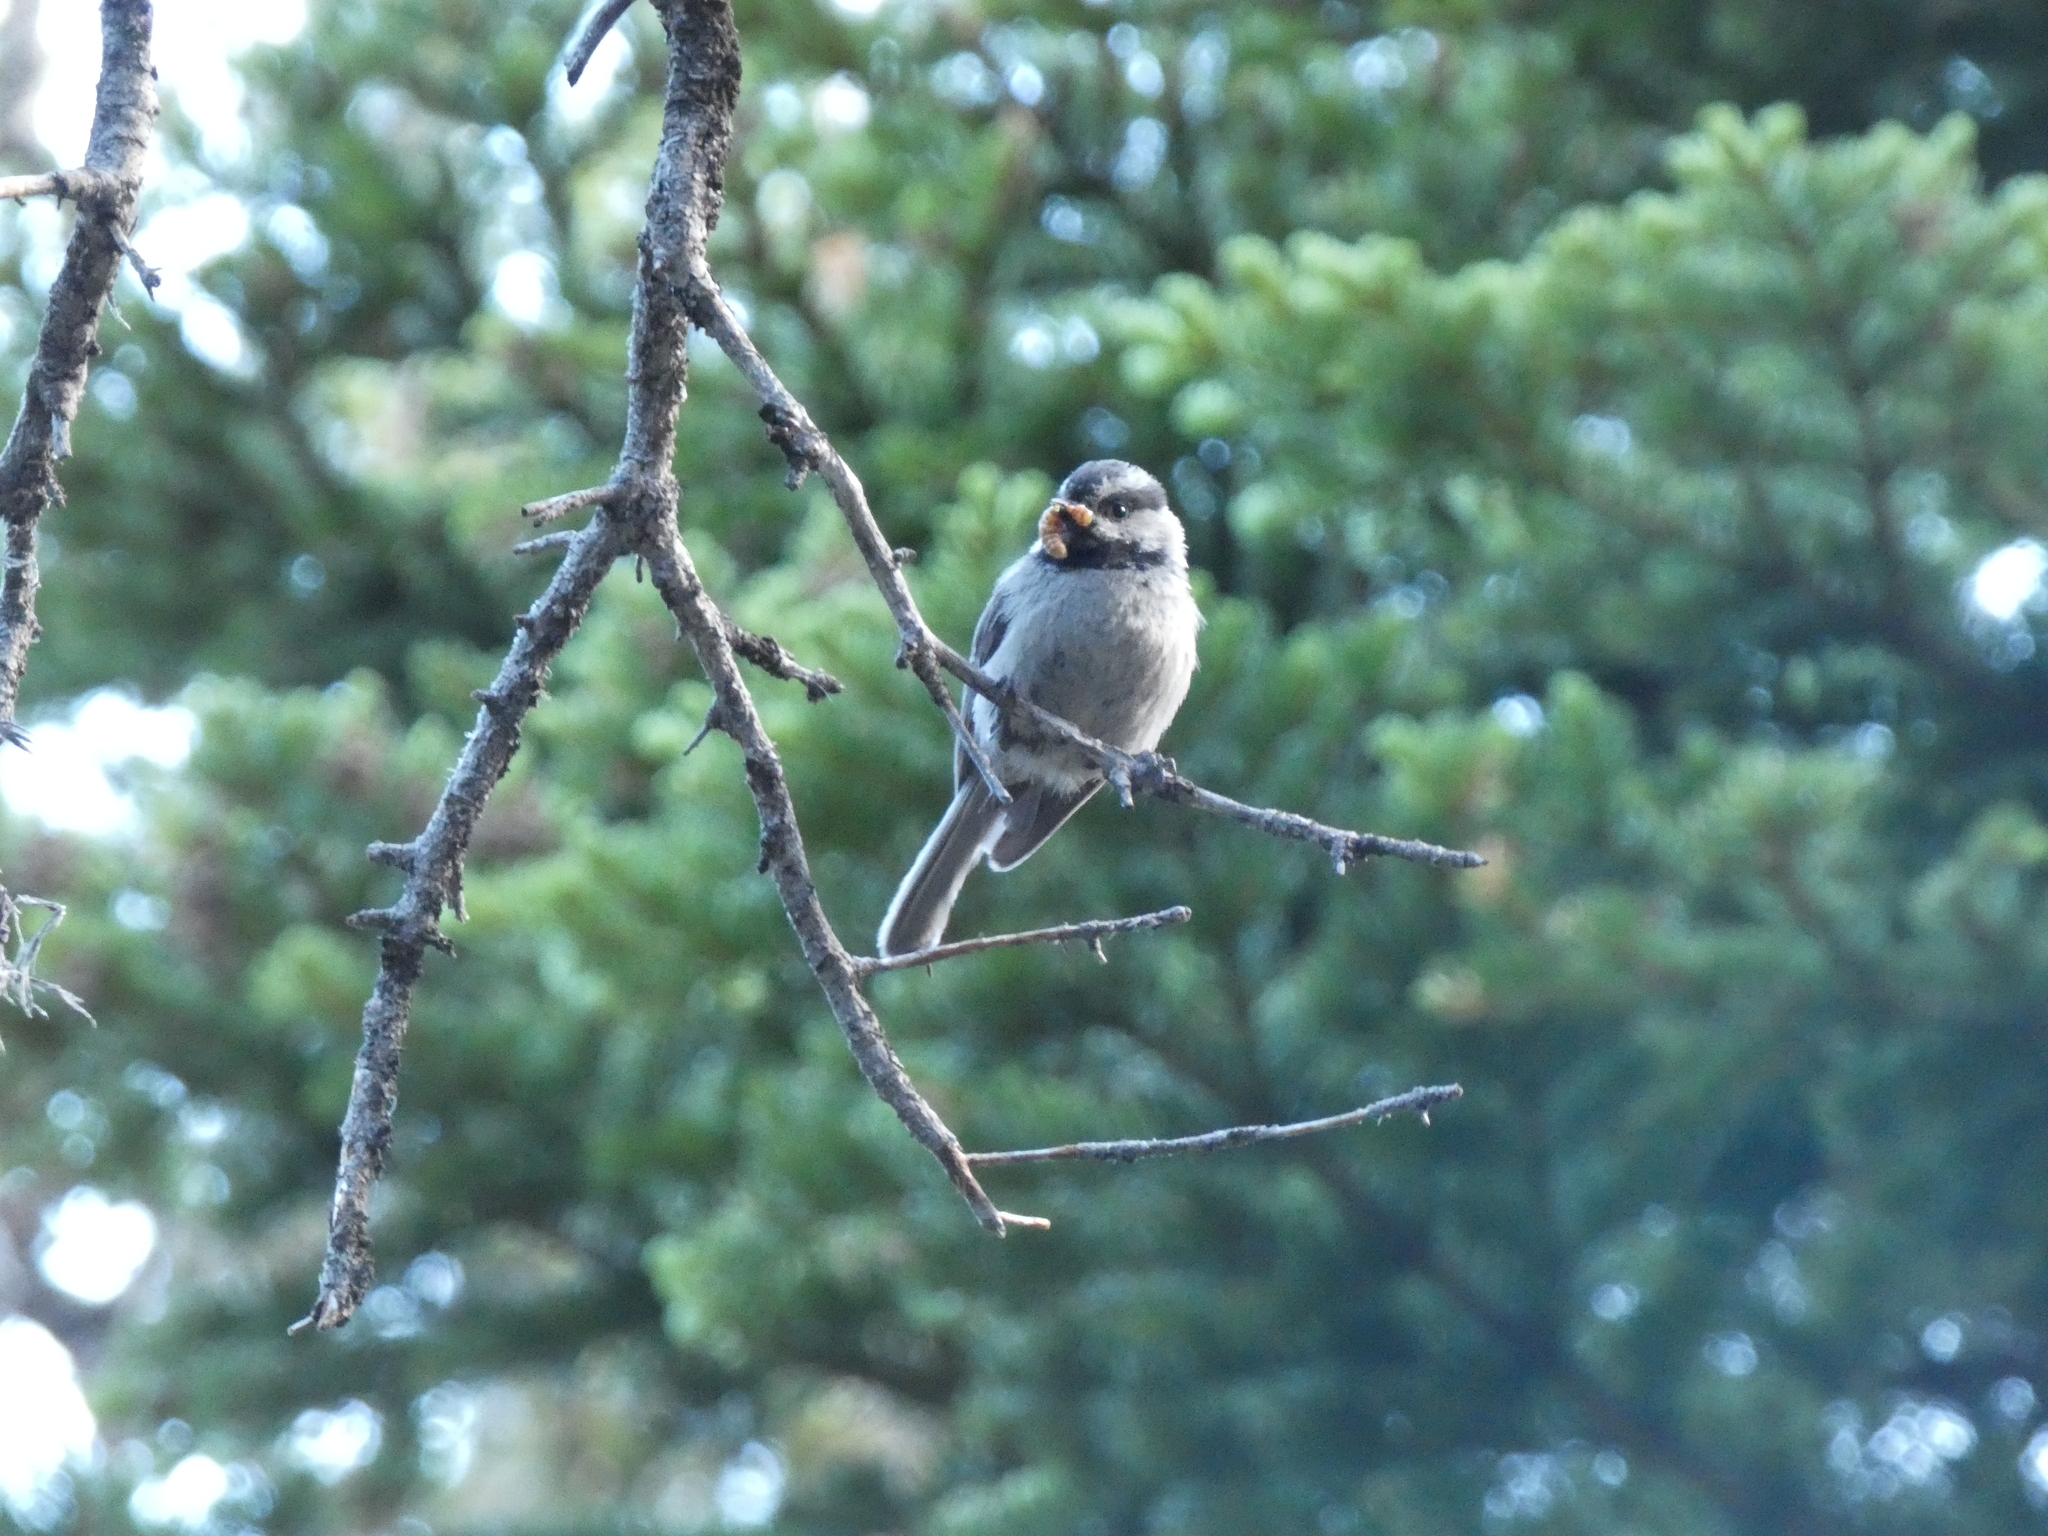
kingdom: Animalia
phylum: Chordata
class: Aves
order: Passeriformes
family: Paridae
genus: Poecile
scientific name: Poecile gambeli
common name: Mountain chickadee
